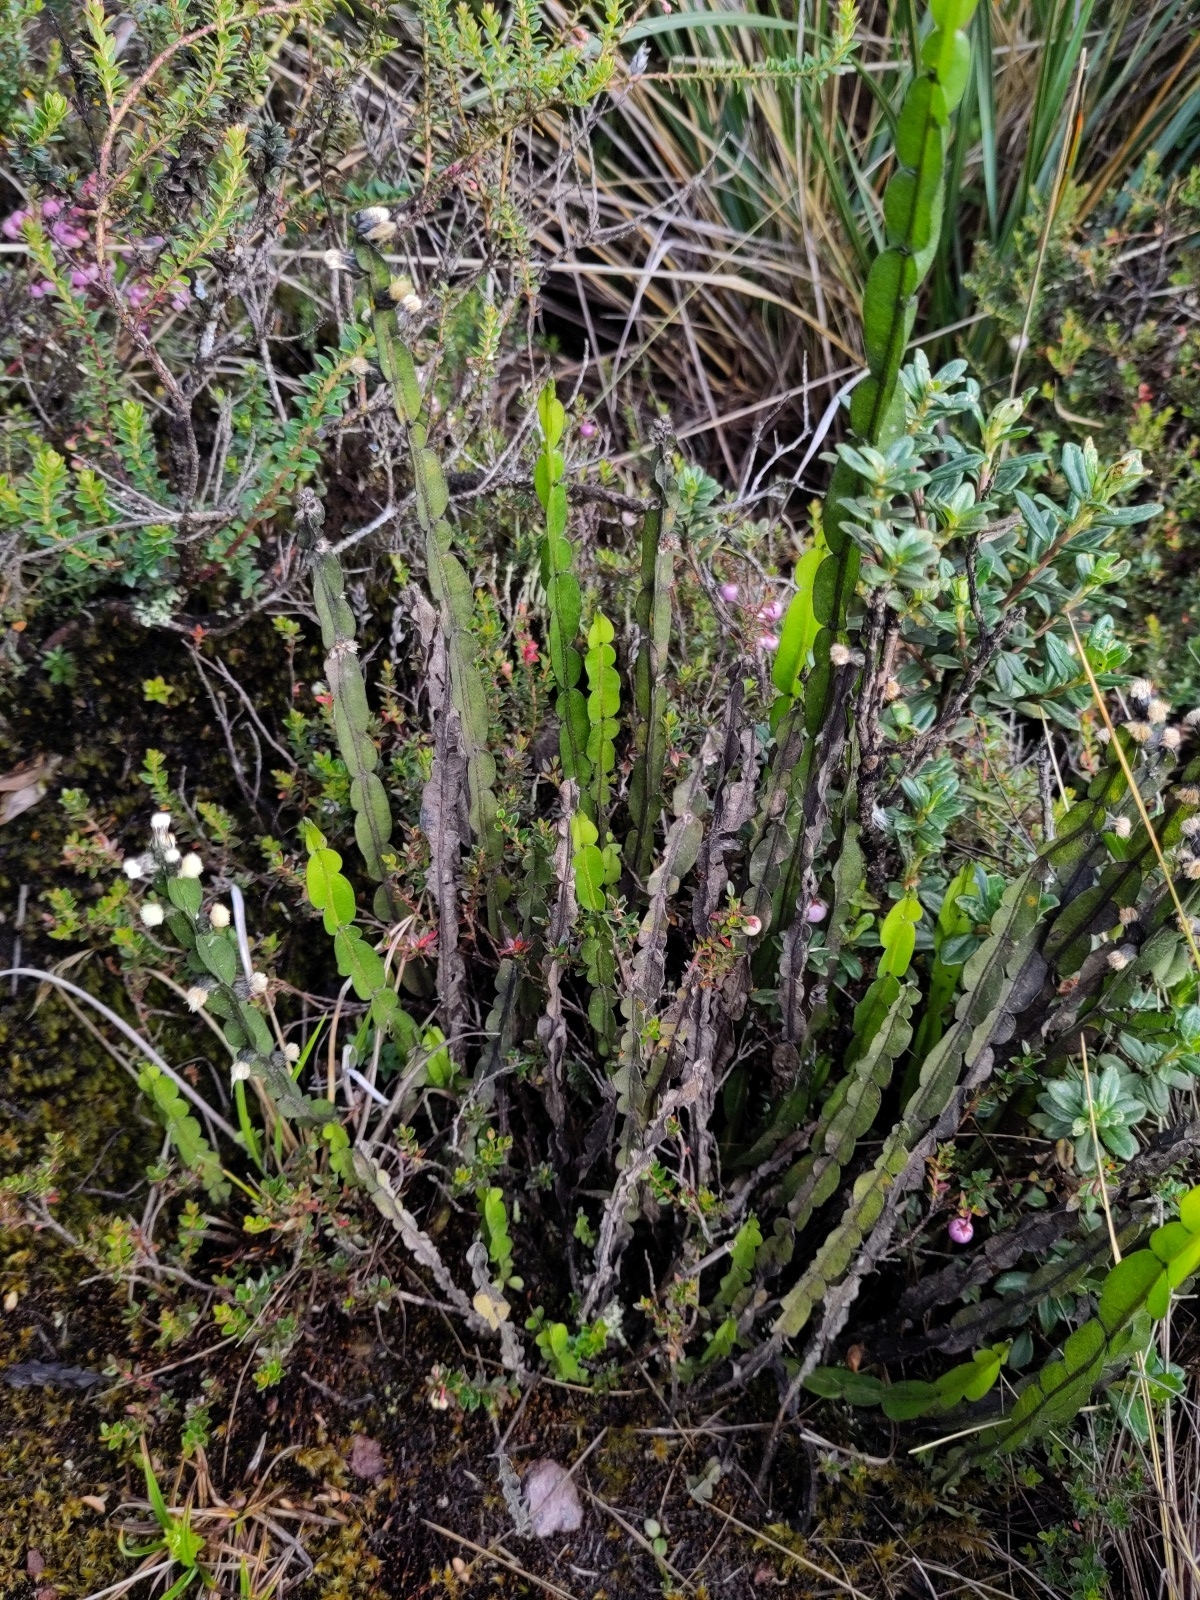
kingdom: Plantae
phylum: Tracheophyta
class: Magnoliopsida
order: Asterales
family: Asteraceae
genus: Baccharis
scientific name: Baccharis genistelloides
